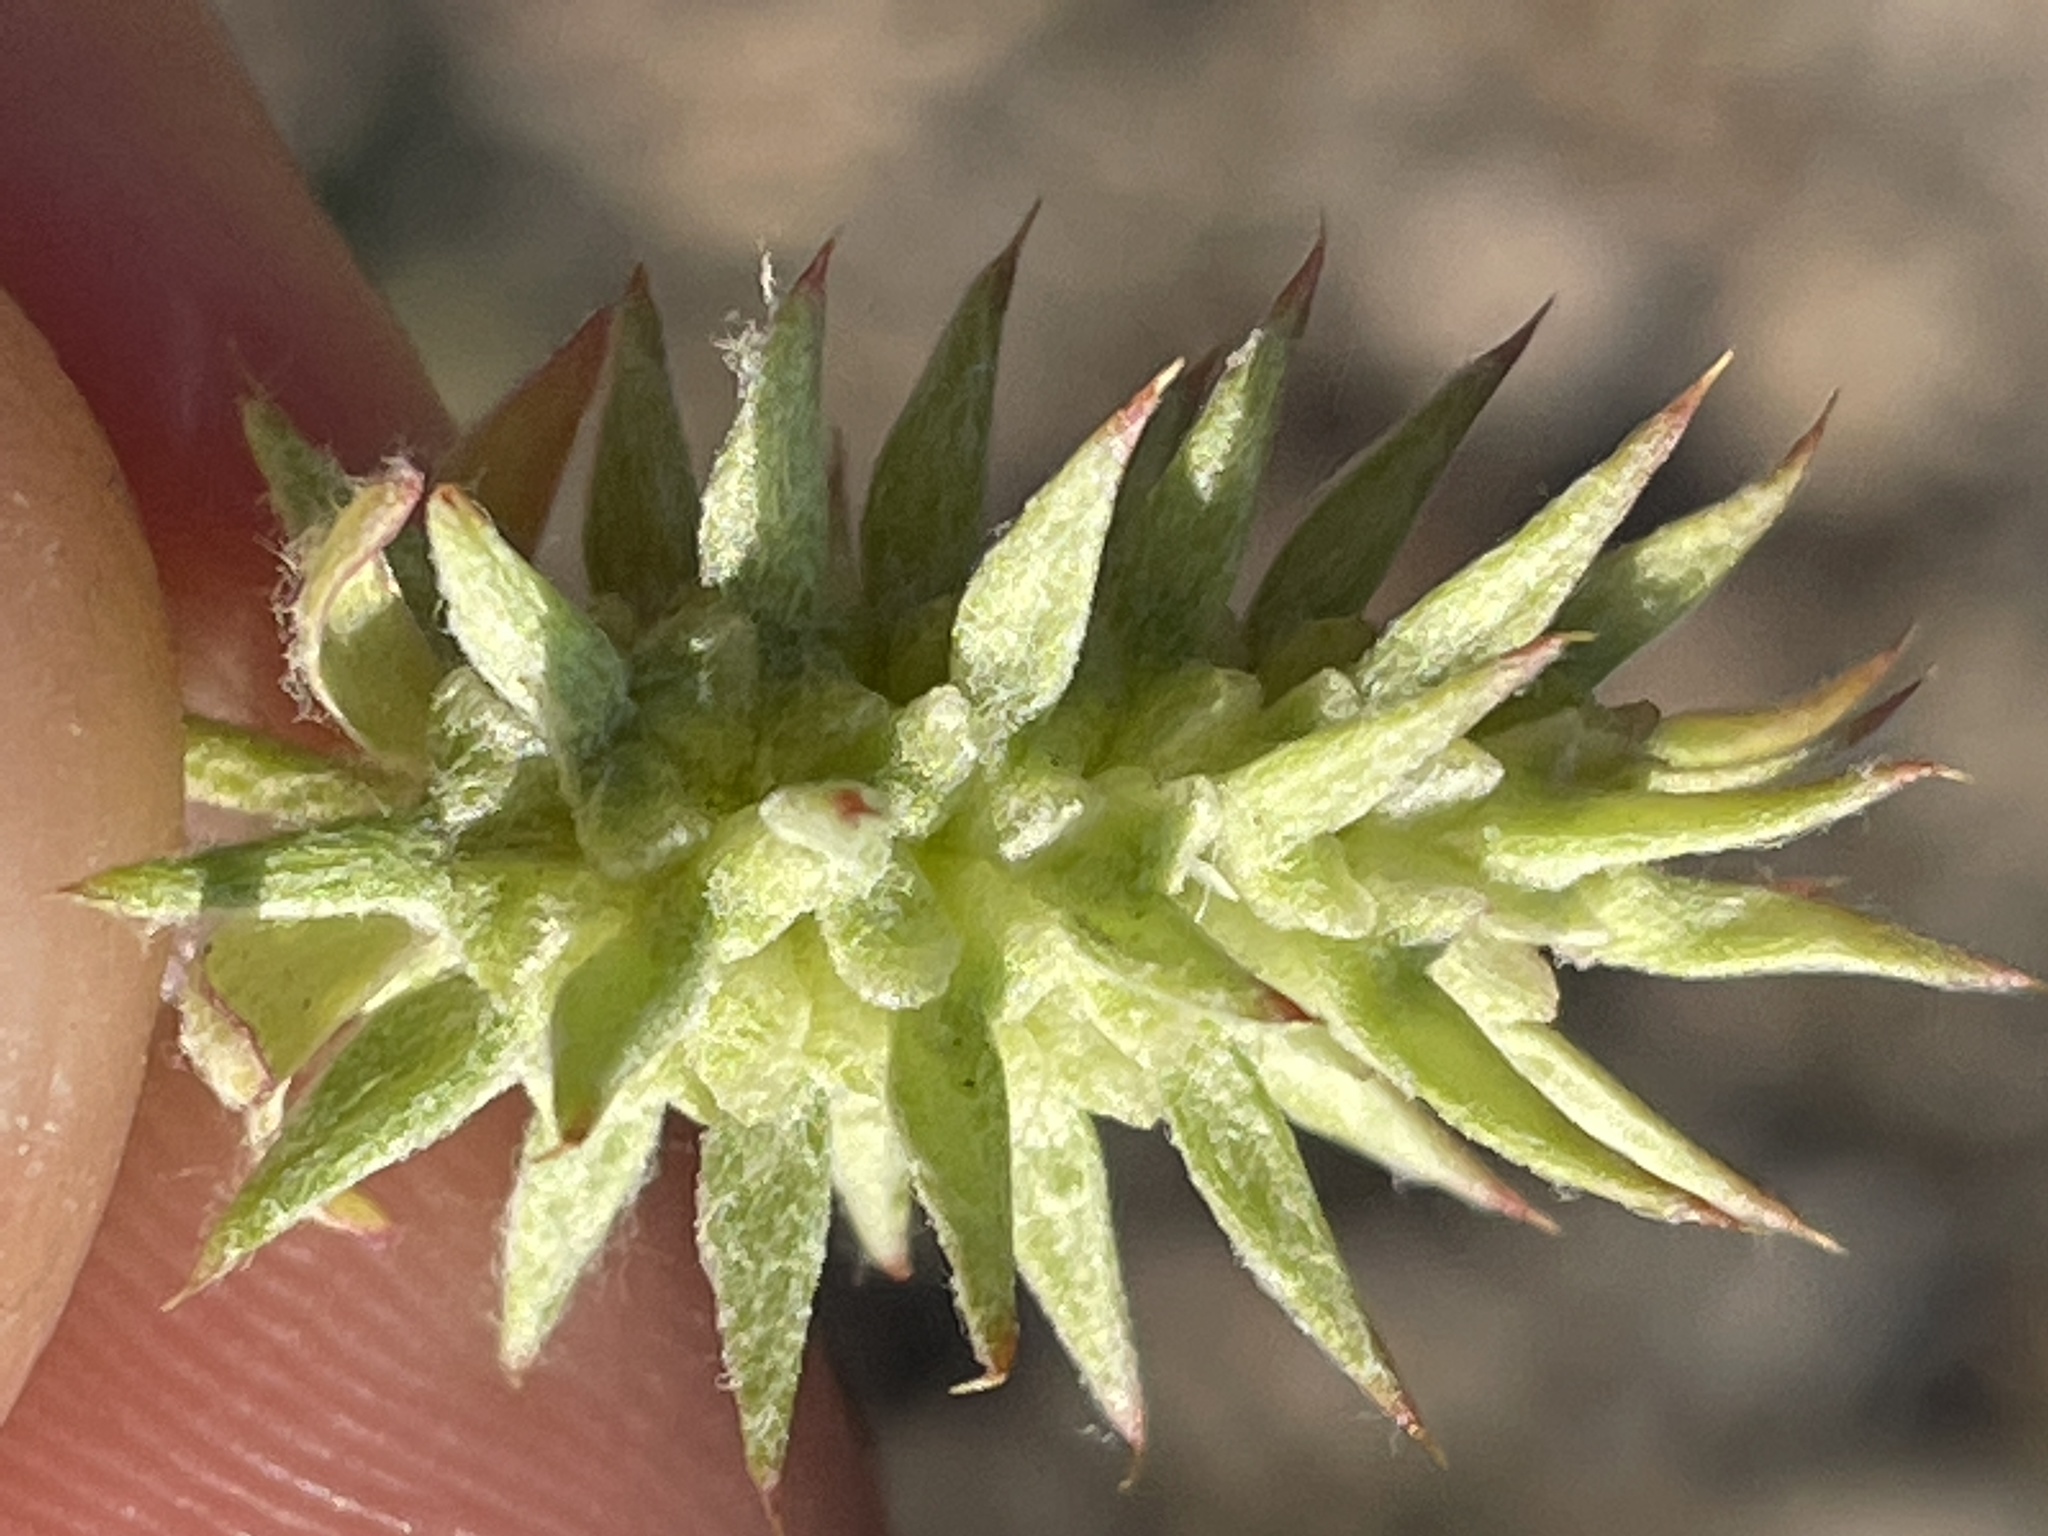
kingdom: Plantae
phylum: Tracheophyta
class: Magnoliopsida
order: Ranunculales
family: Ranunculaceae
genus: Ceratocephala
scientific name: Ceratocephala orthoceras
